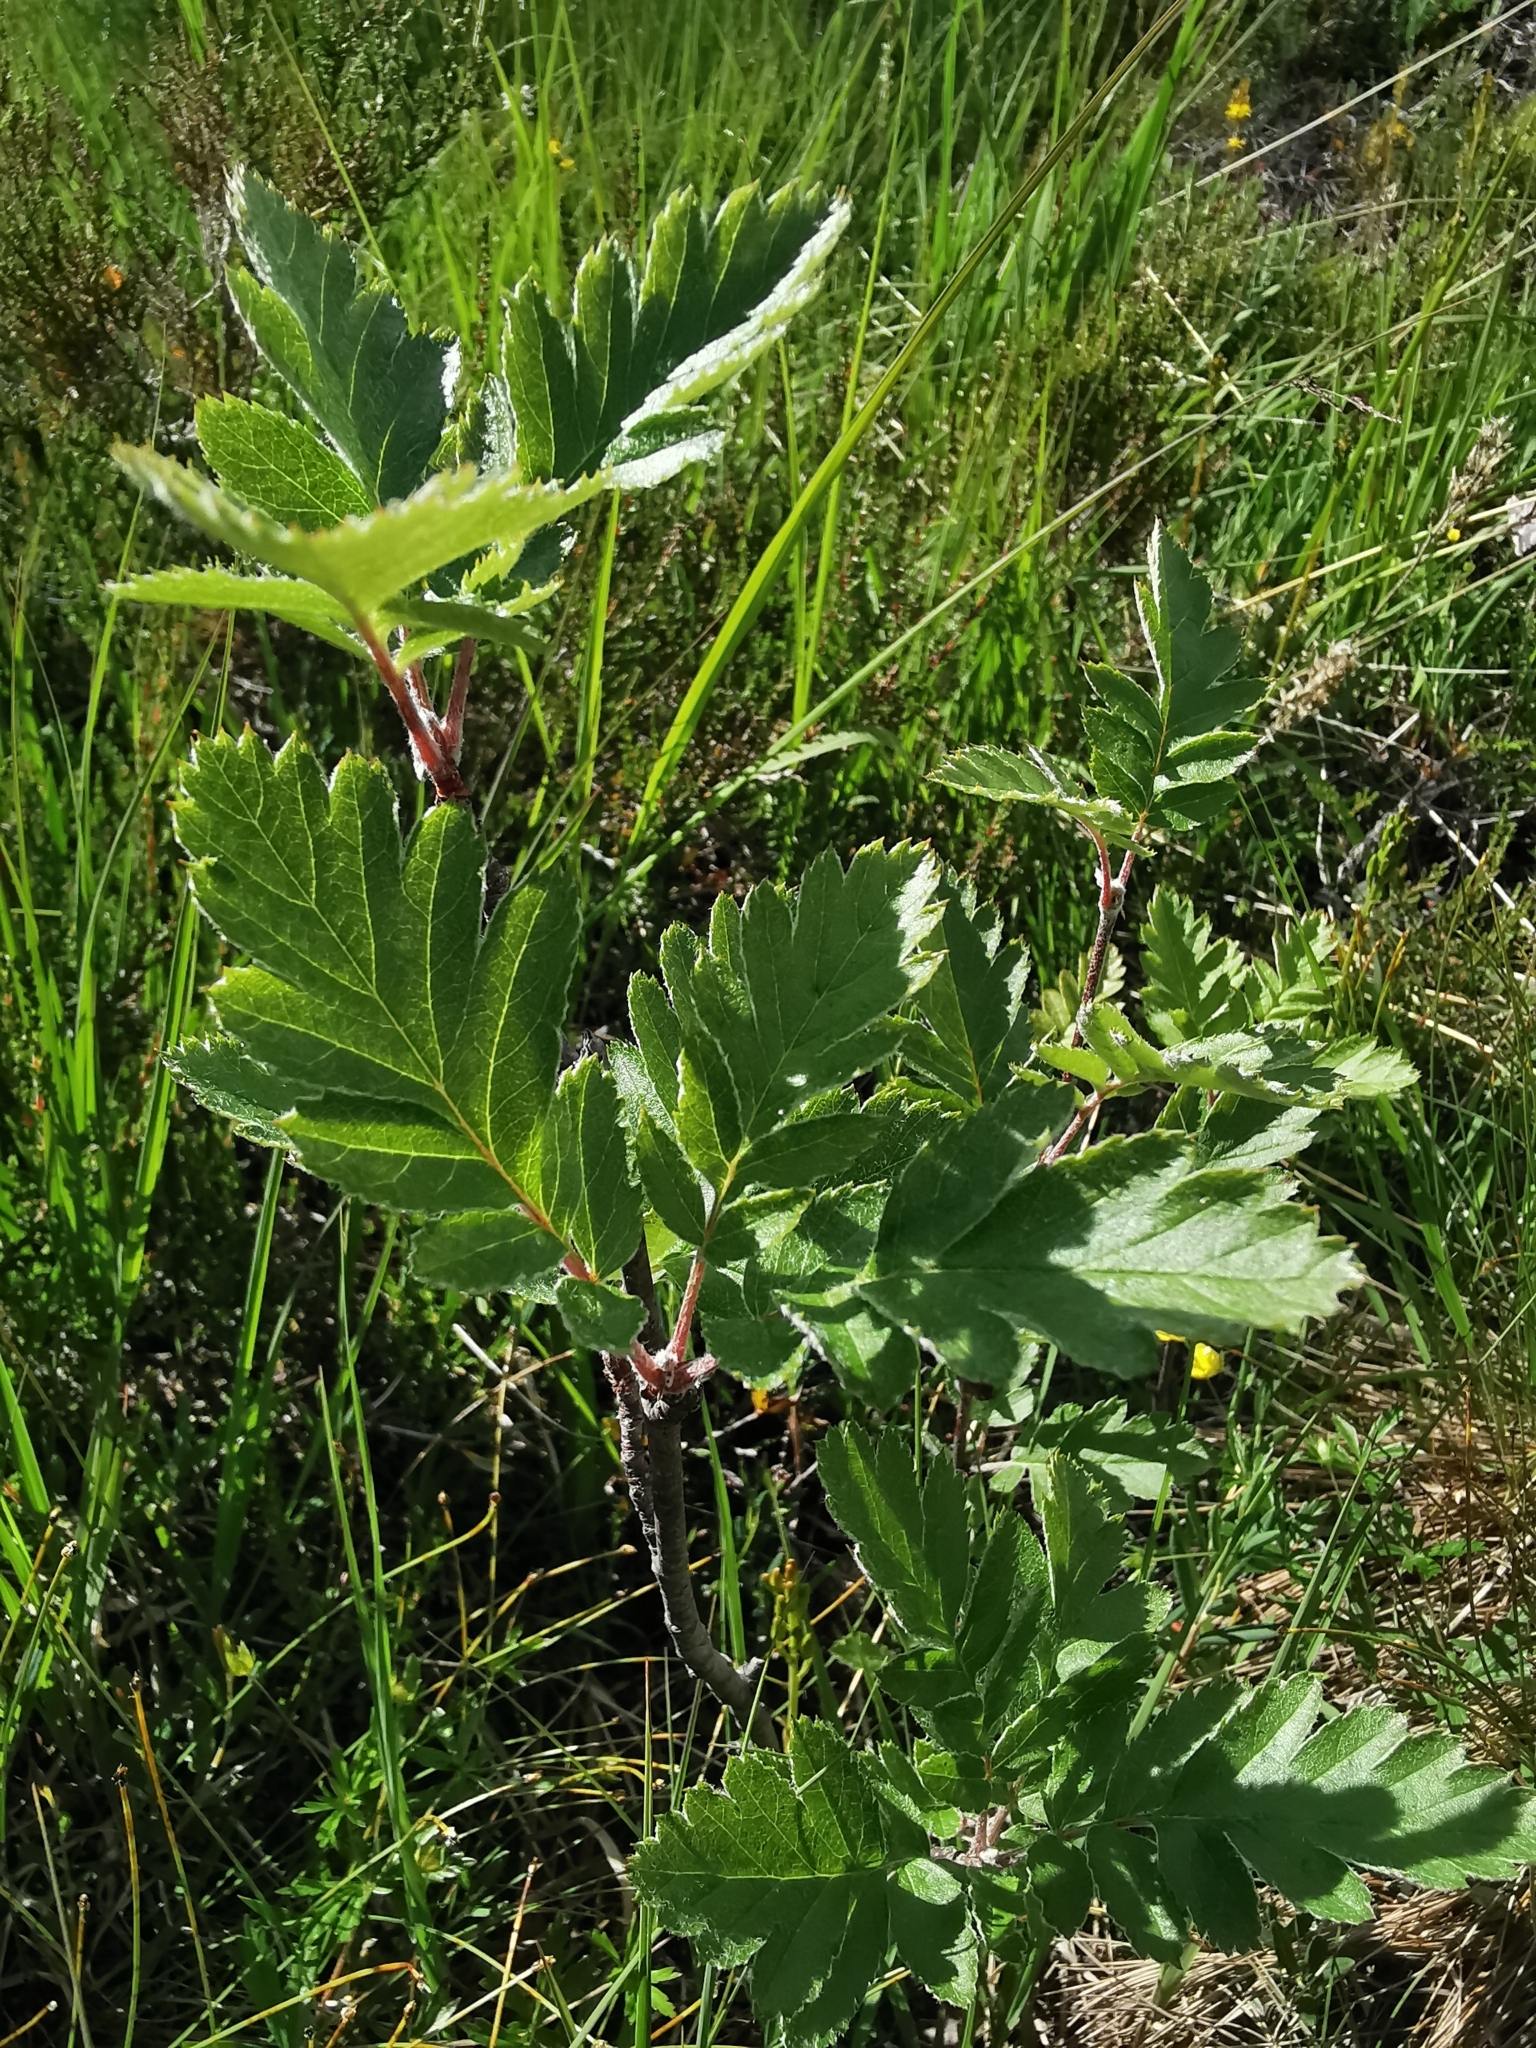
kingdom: Plantae
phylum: Tracheophyta
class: Magnoliopsida
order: Rosales
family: Rosaceae
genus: Hedlundia
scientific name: Hedlundia hybrida
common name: Swedish service-tree
